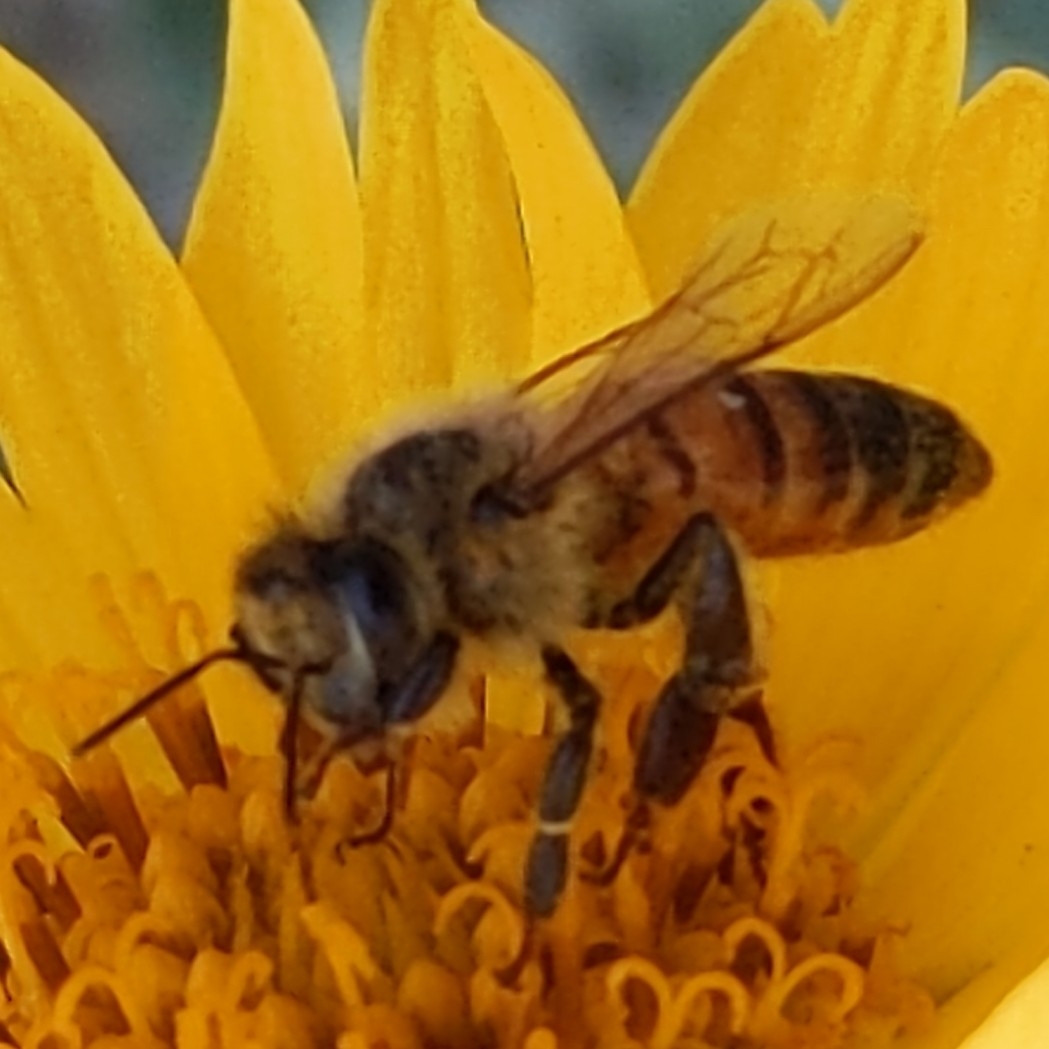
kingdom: Animalia
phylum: Arthropoda
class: Insecta
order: Hymenoptera
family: Apidae
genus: Apis
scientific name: Apis mellifera
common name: Honey bee
